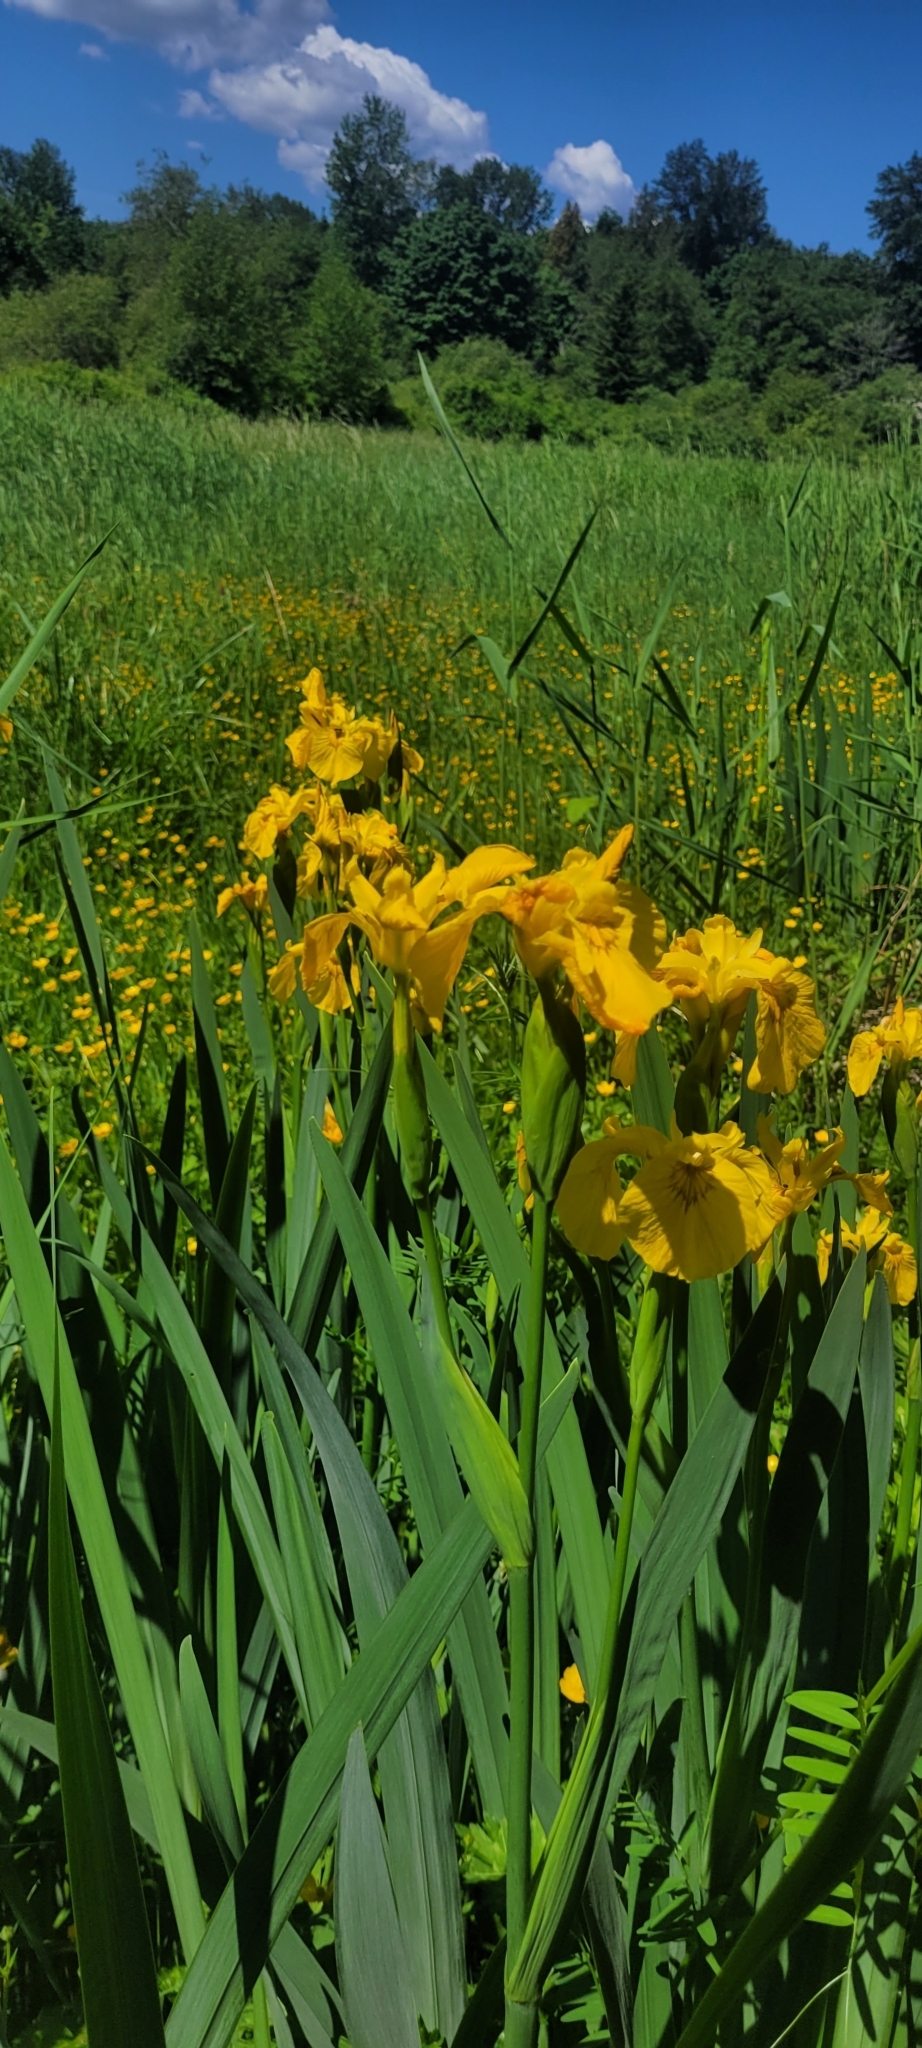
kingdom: Plantae
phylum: Tracheophyta
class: Liliopsida
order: Asparagales
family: Iridaceae
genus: Iris
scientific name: Iris pseudacorus
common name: Yellow flag
